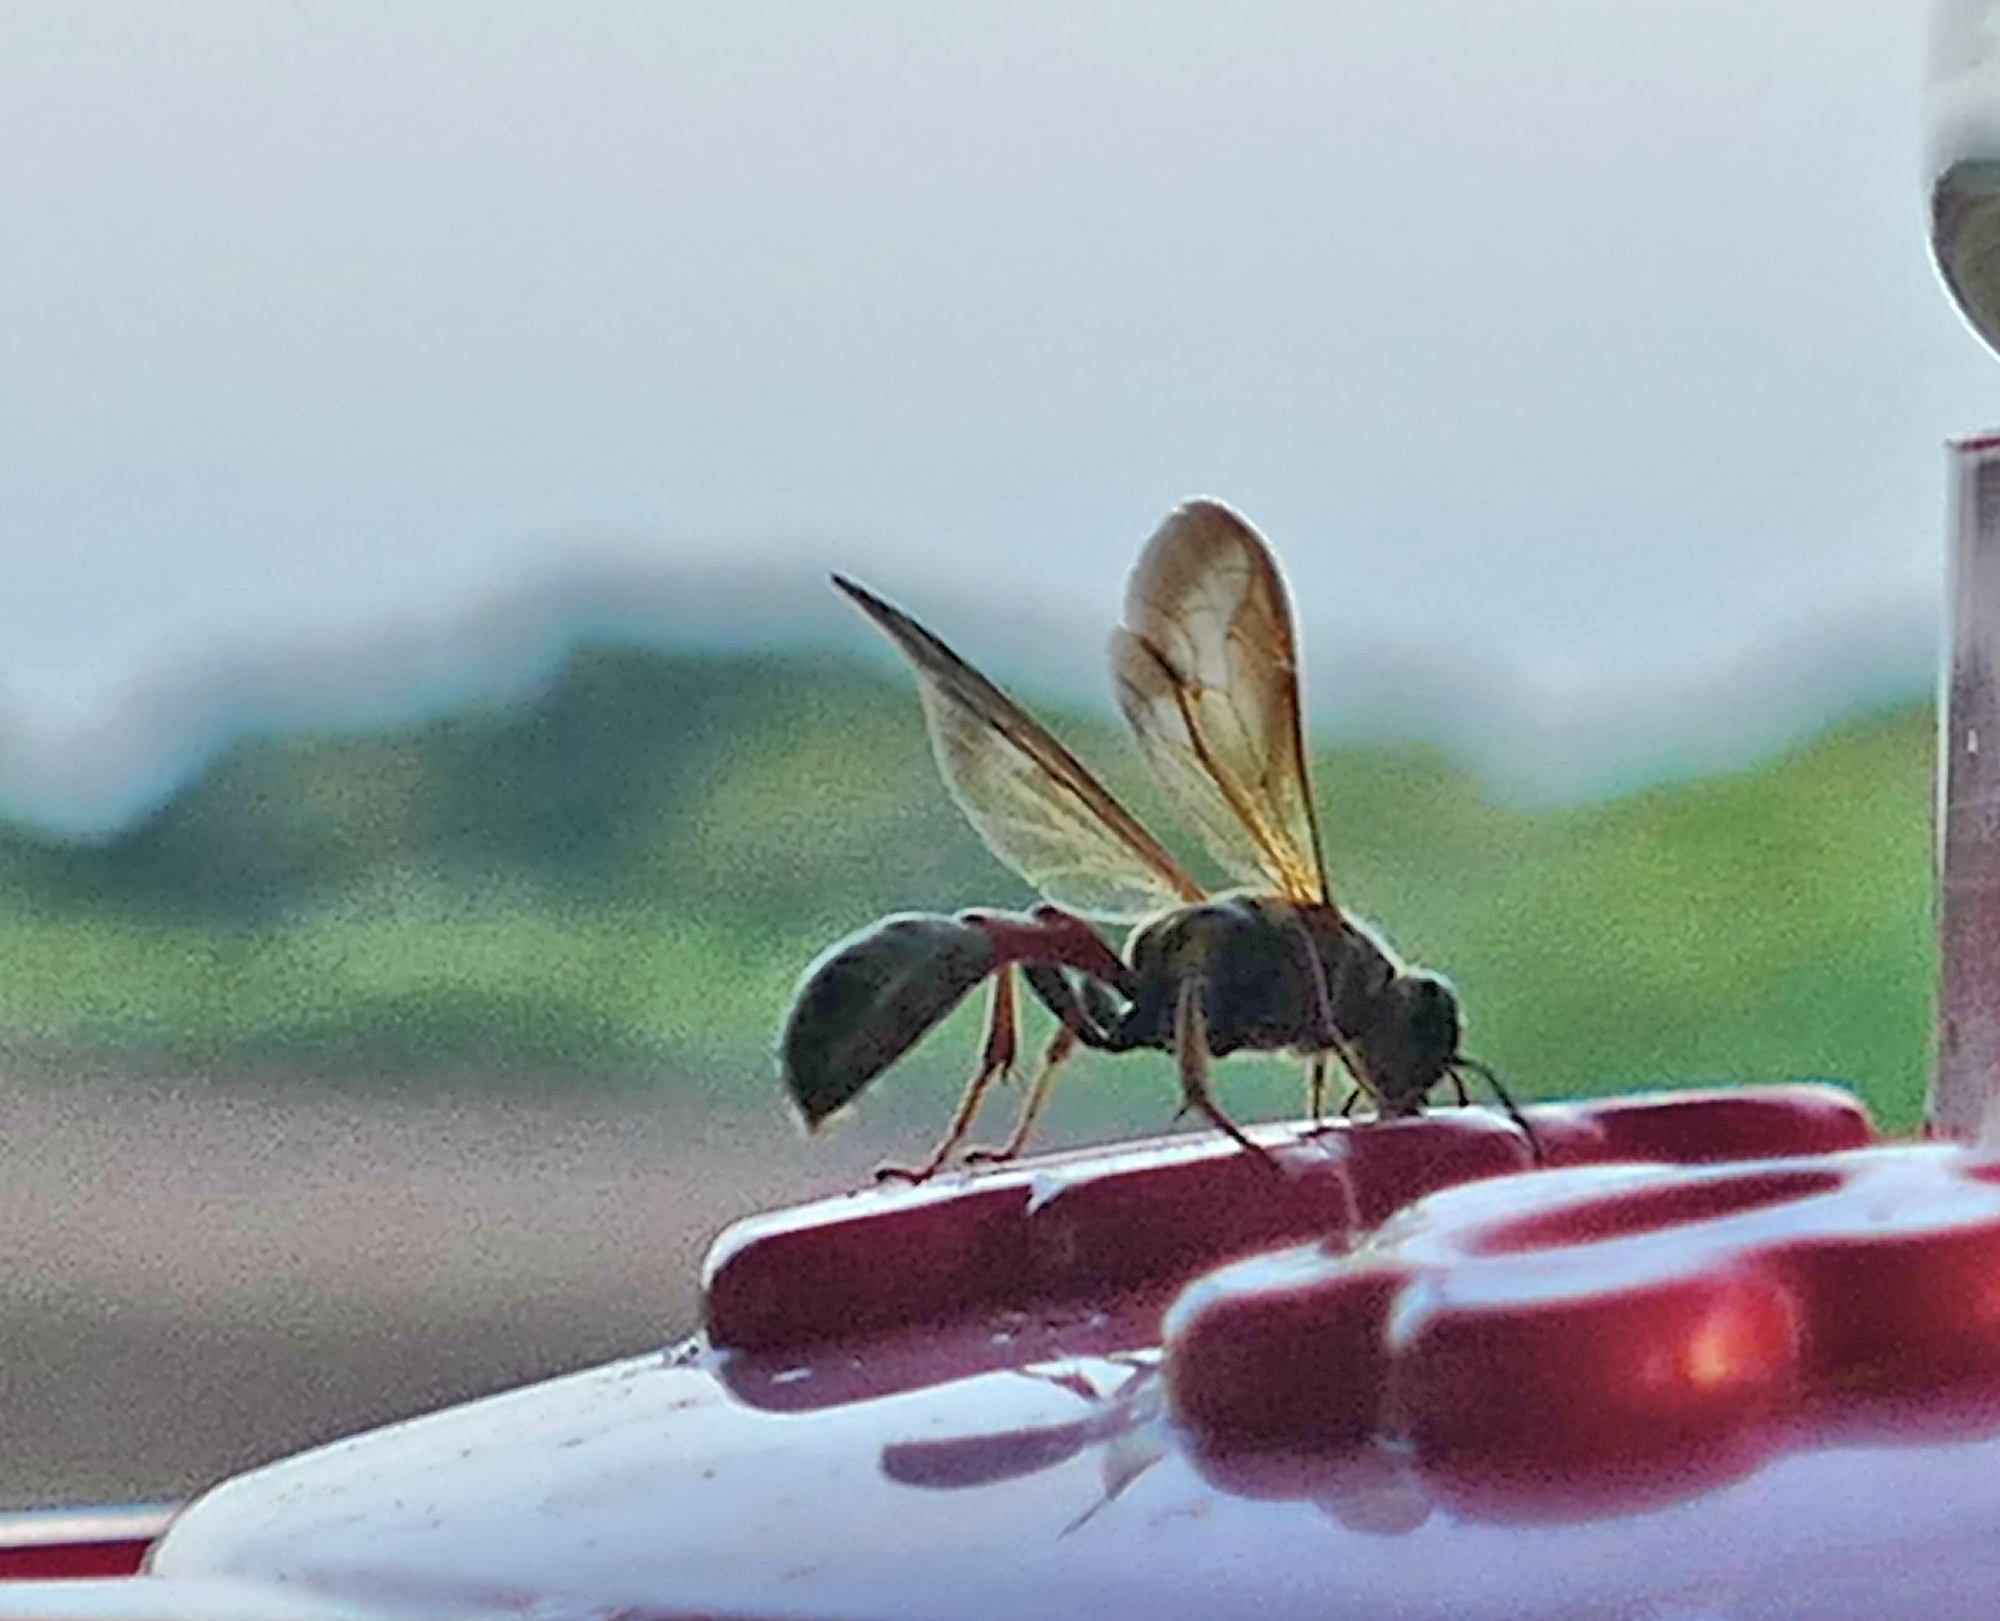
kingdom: Animalia
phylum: Arthropoda
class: Insecta
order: Hymenoptera
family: Crabronidae
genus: Trypoxylon
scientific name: Trypoxylon texense
